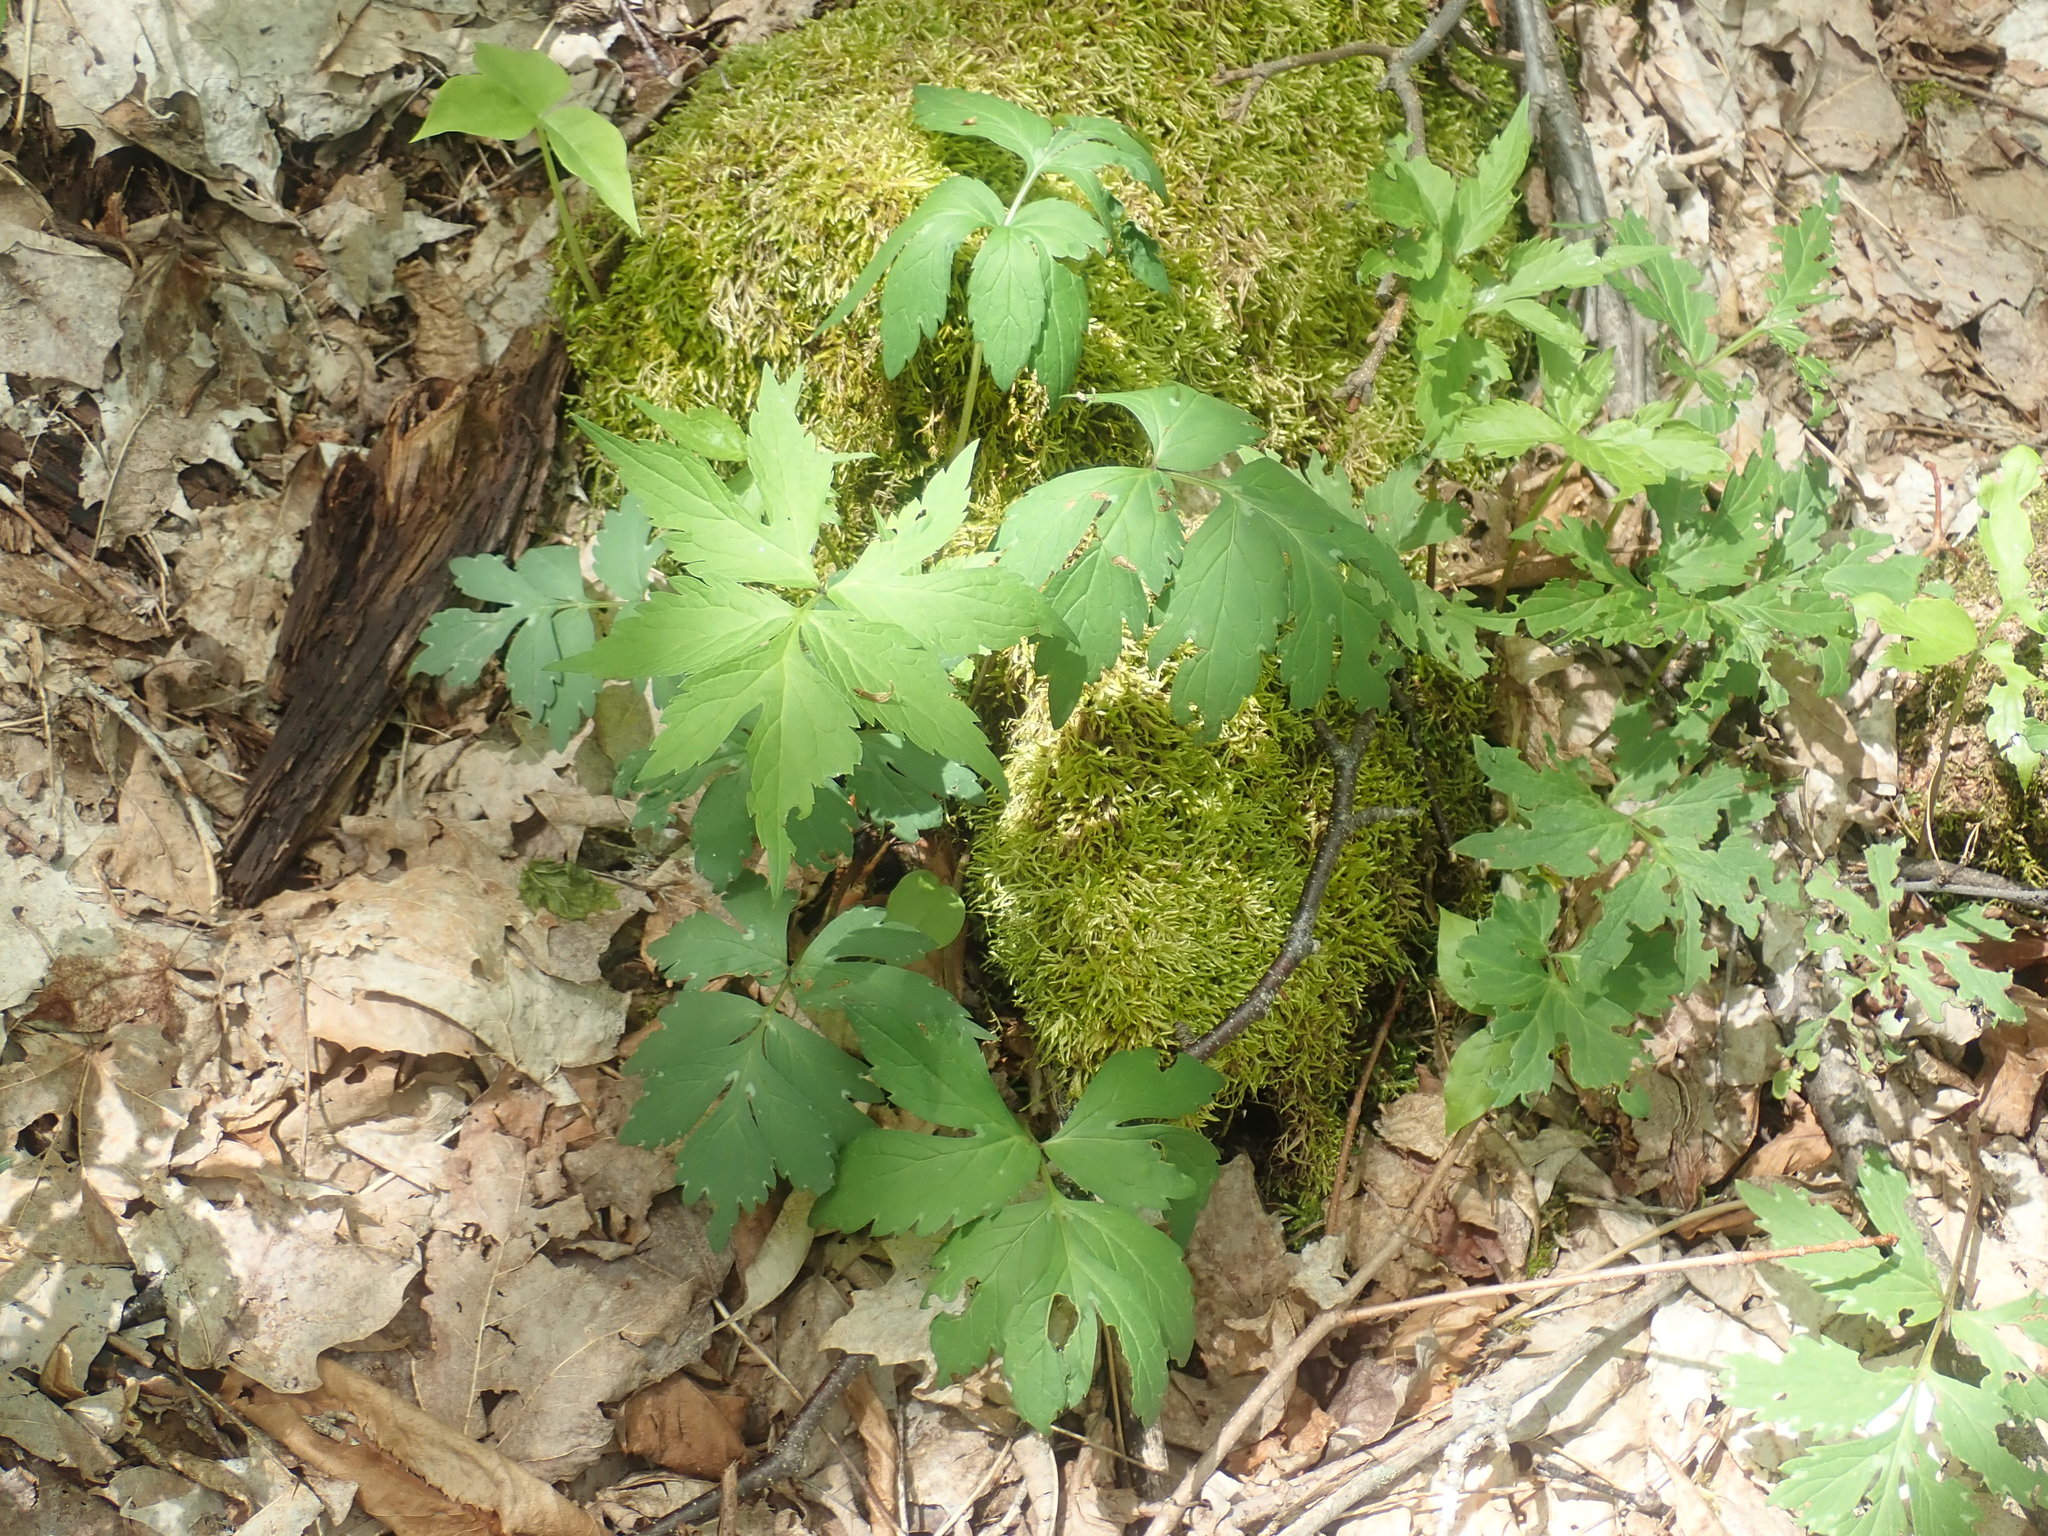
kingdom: Plantae
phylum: Tracheophyta
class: Magnoliopsida
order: Boraginales
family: Hydrophyllaceae
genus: Hydrophyllum
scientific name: Hydrophyllum virginianum
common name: Virginia waterleaf
